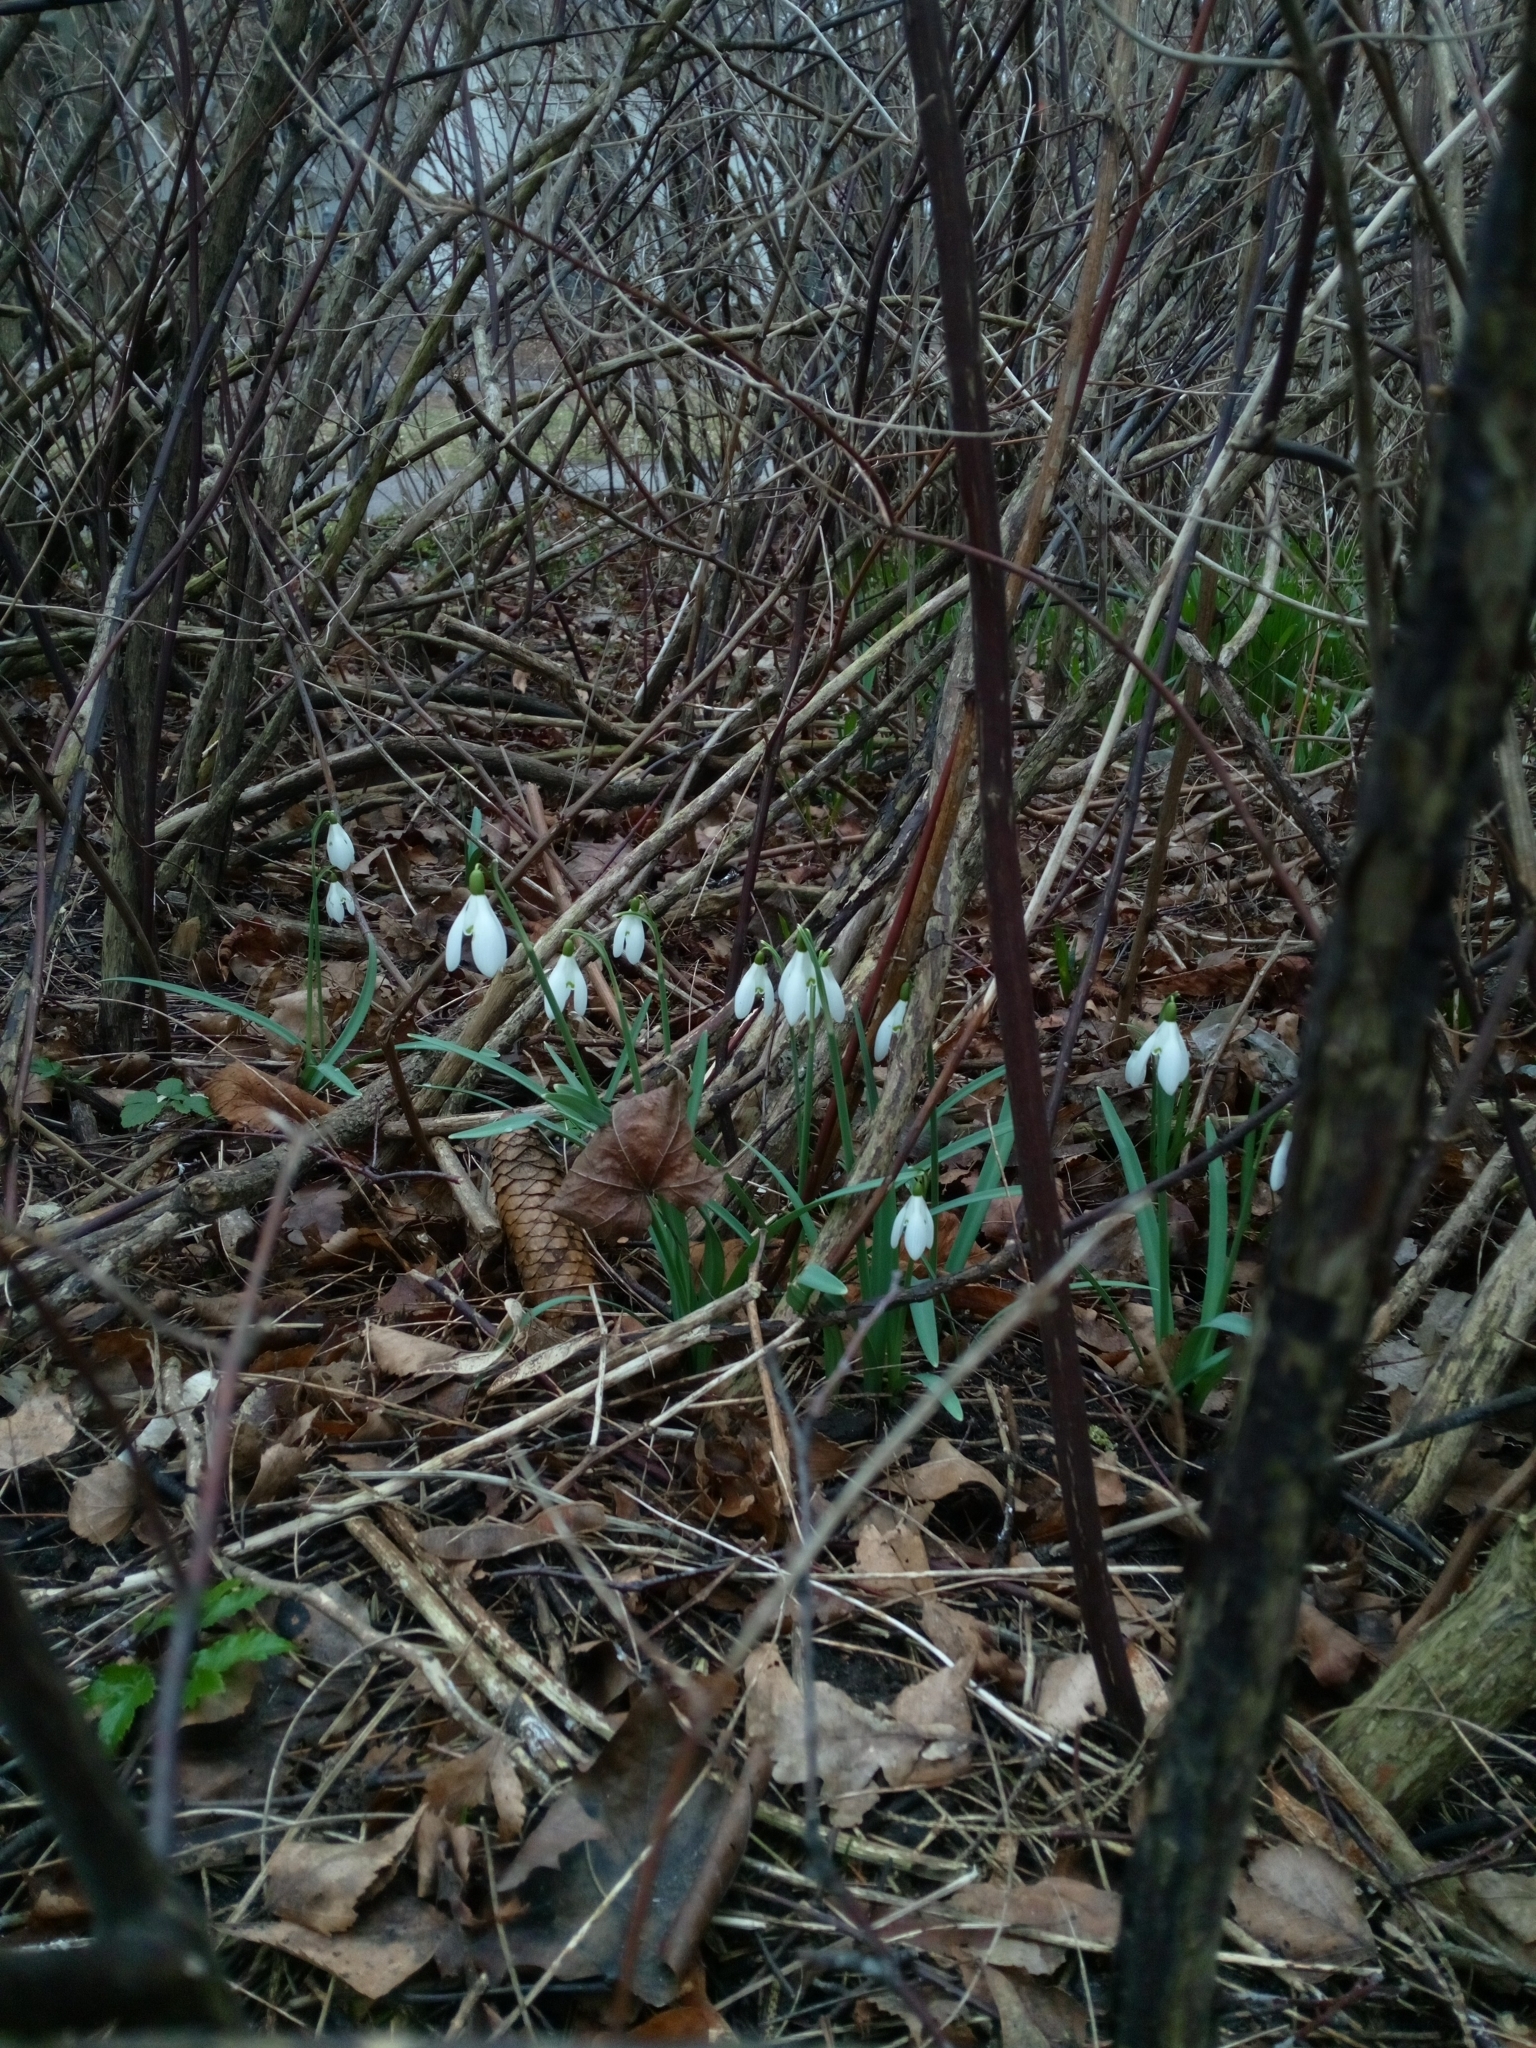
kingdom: Plantae
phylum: Tracheophyta
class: Liliopsida
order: Asparagales
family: Amaryllidaceae
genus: Galanthus
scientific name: Galanthus nivalis
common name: Snowdrop
